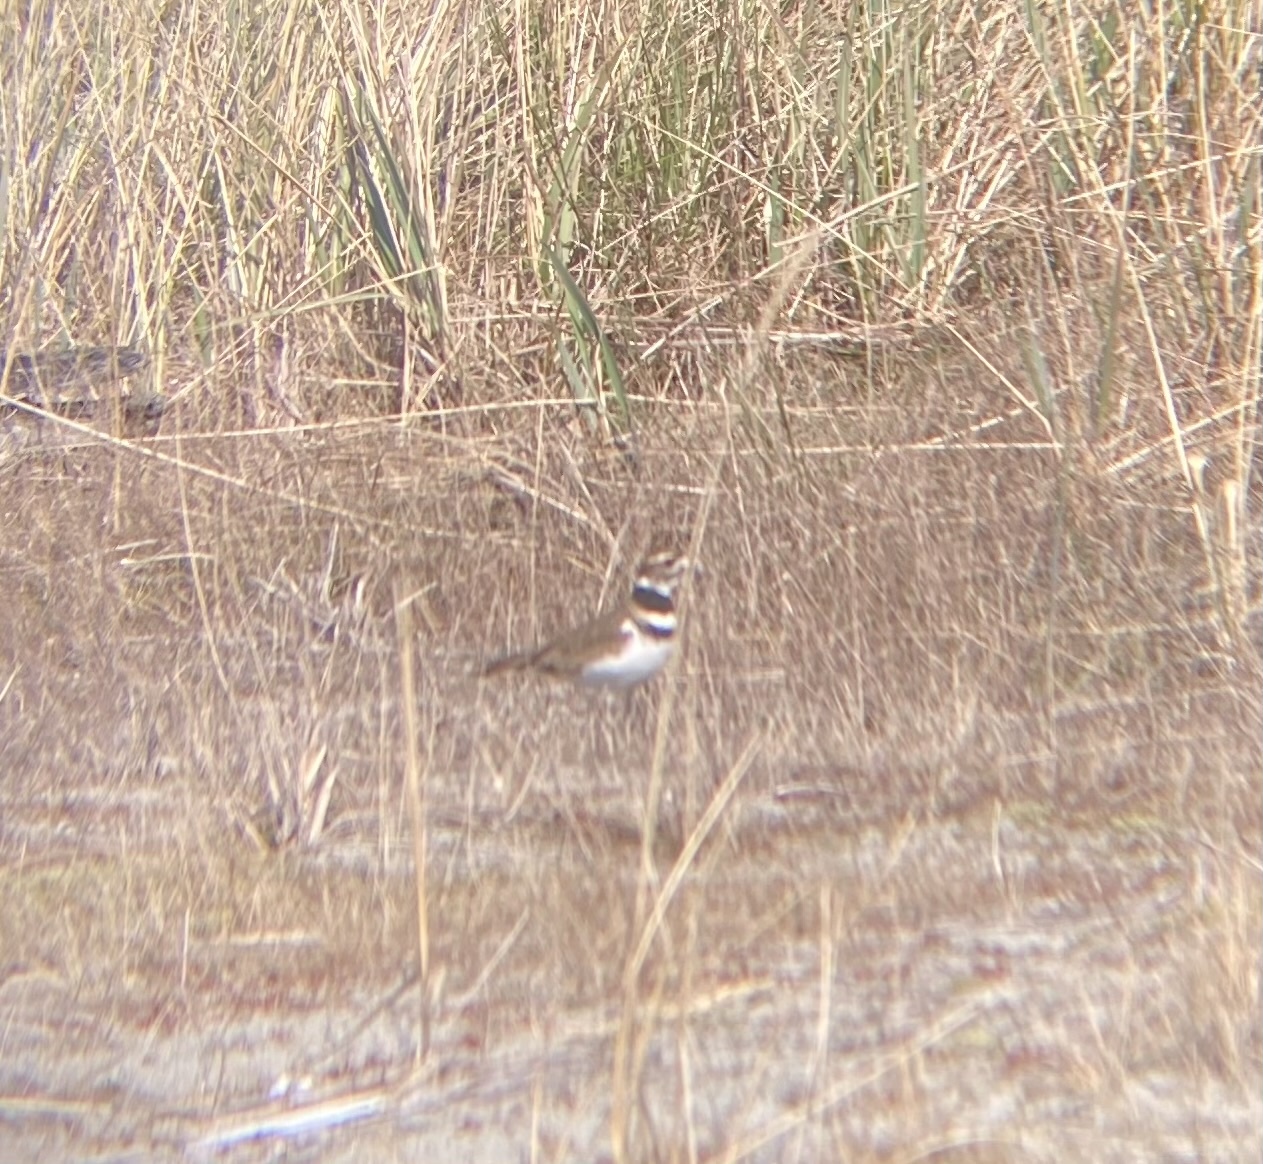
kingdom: Animalia
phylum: Chordata
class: Aves
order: Charadriiformes
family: Charadriidae
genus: Charadrius
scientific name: Charadrius vociferus
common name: Killdeer
